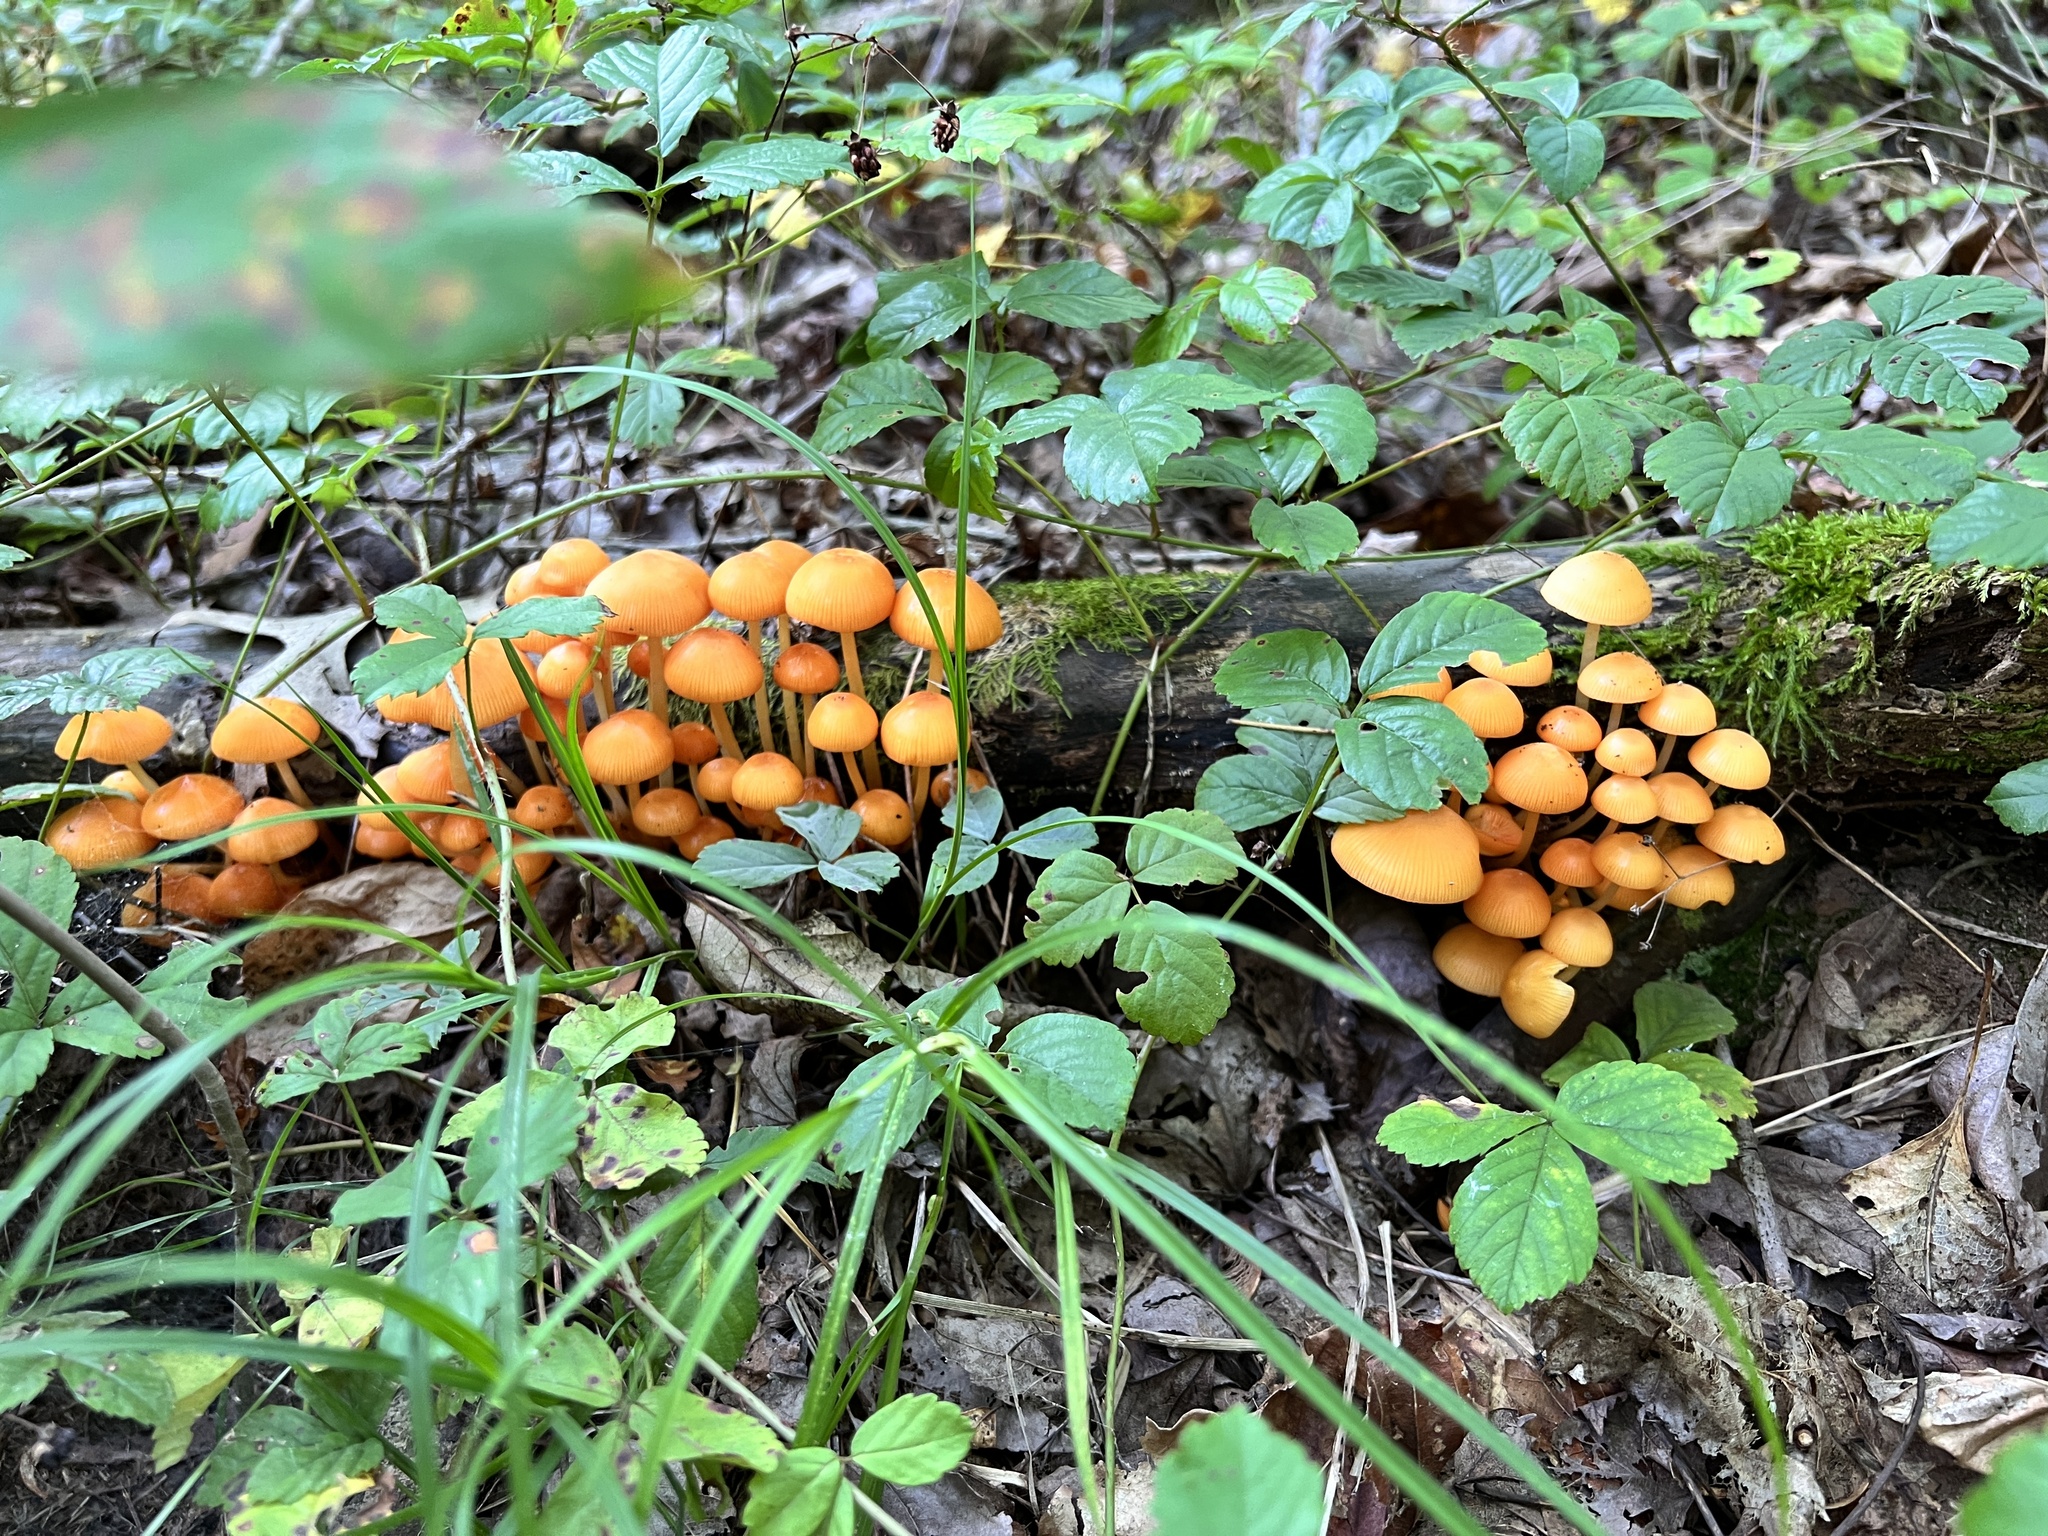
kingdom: Fungi
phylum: Basidiomycota
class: Agaricomycetes
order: Agaricales
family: Mycenaceae
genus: Mycena
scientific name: Mycena leaiana
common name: Orange mycena
